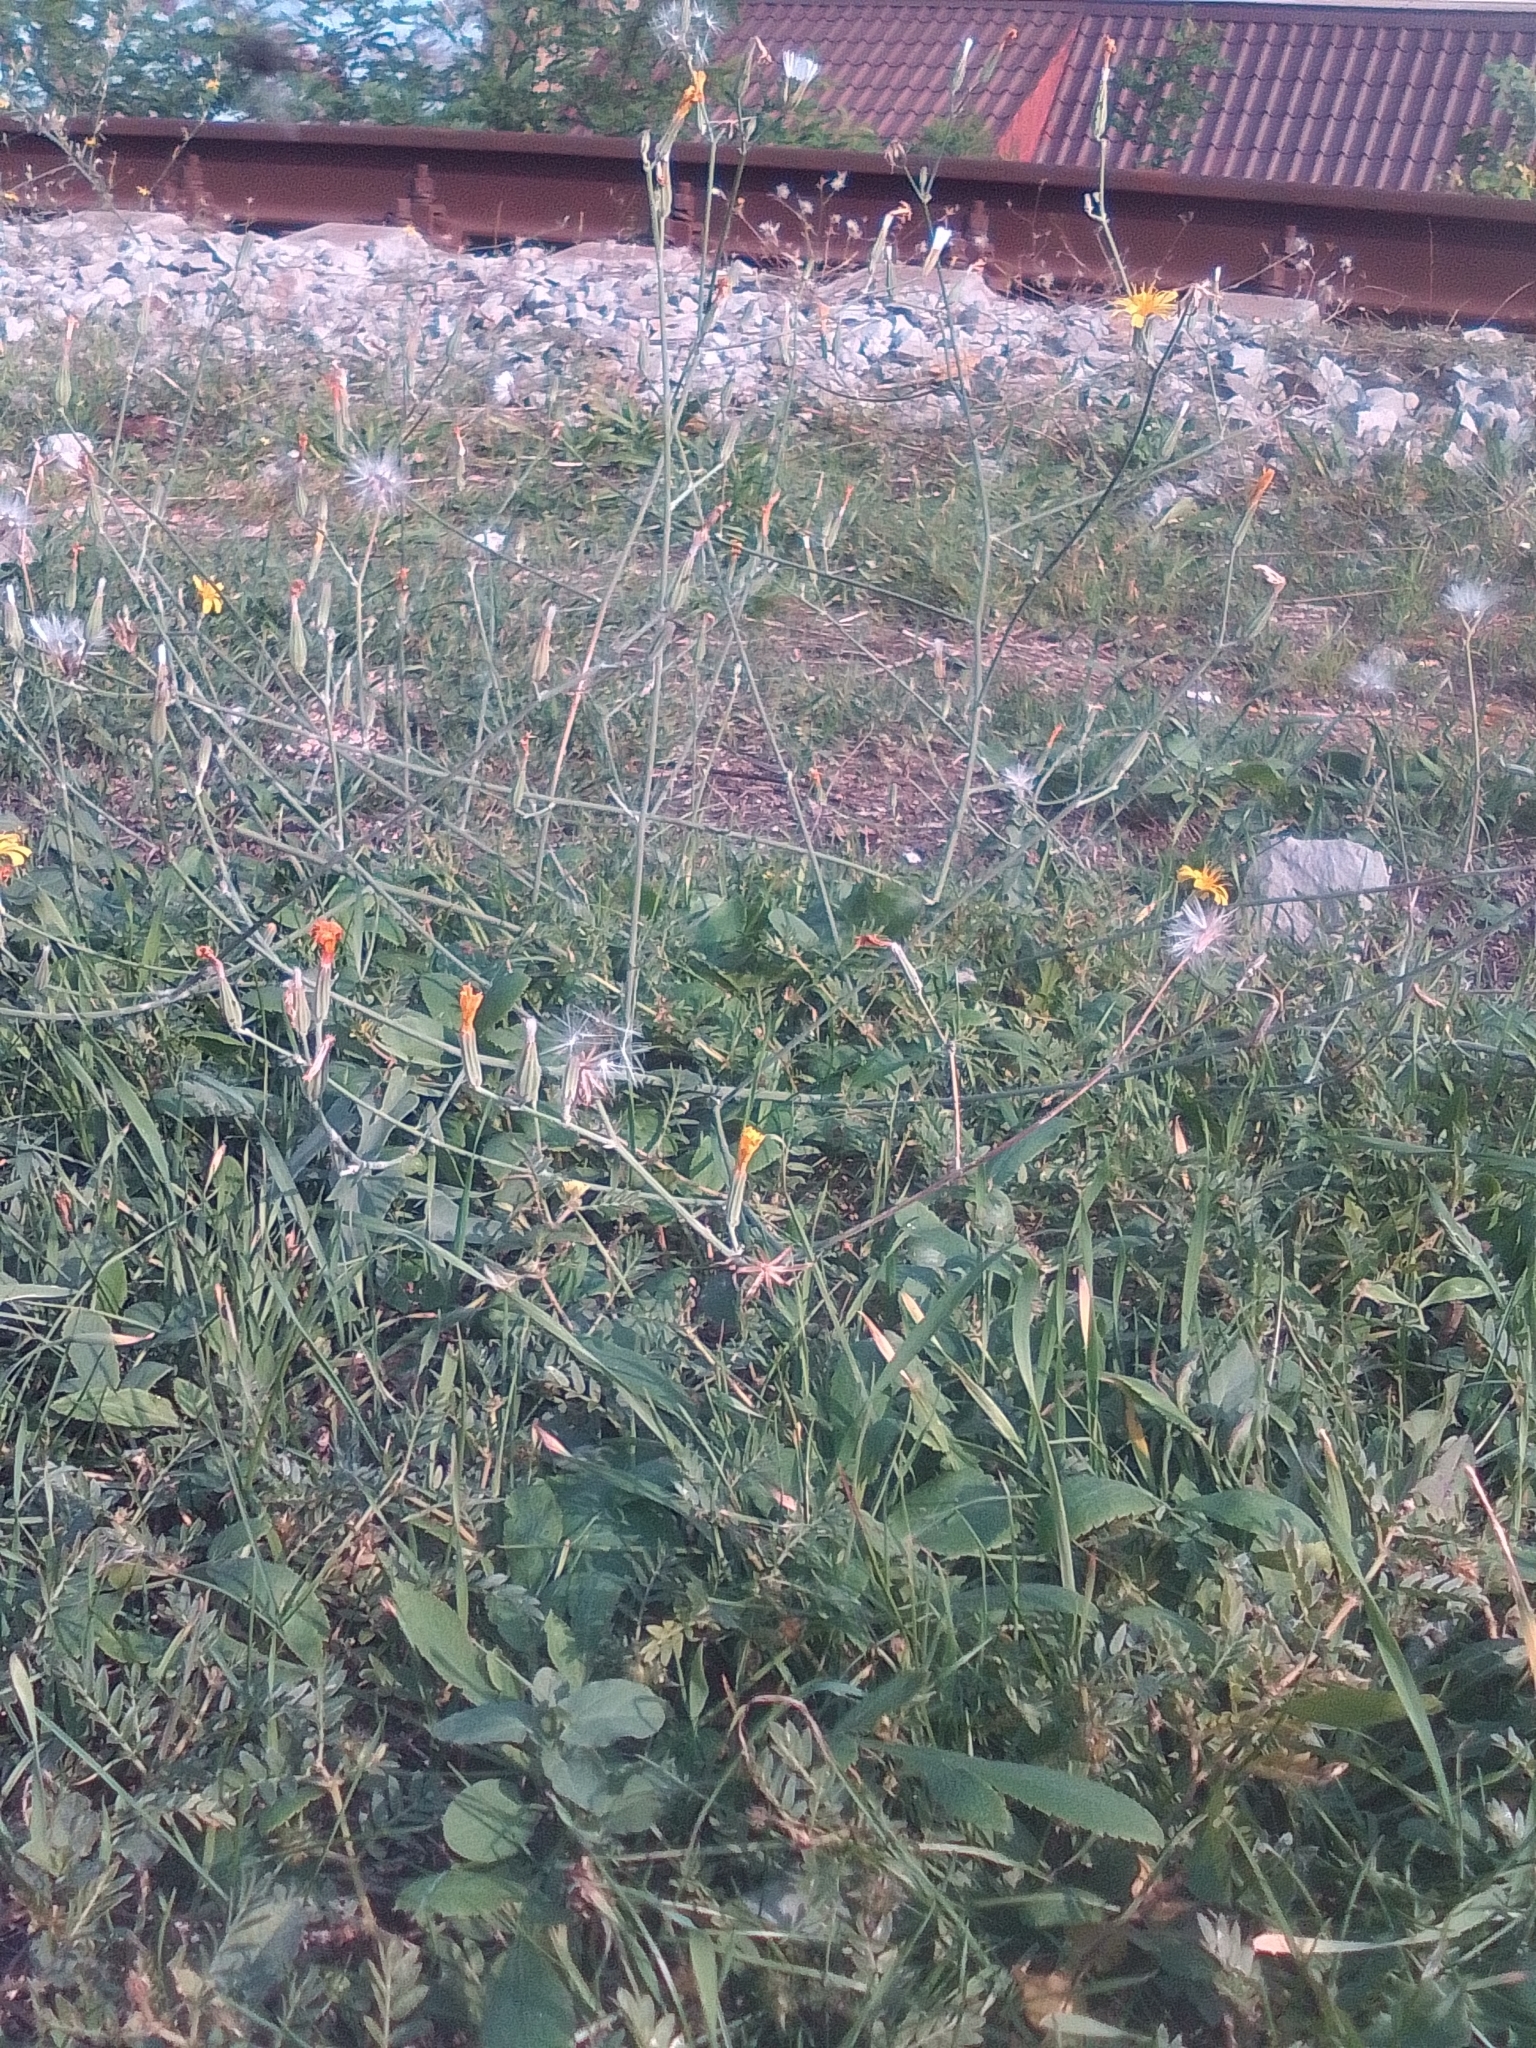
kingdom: Plantae
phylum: Tracheophyta
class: Magnoliopsida
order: Asterales
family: Asteraceae
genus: Chondrilla
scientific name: Chondrilla juncea
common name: Skeleton weed
